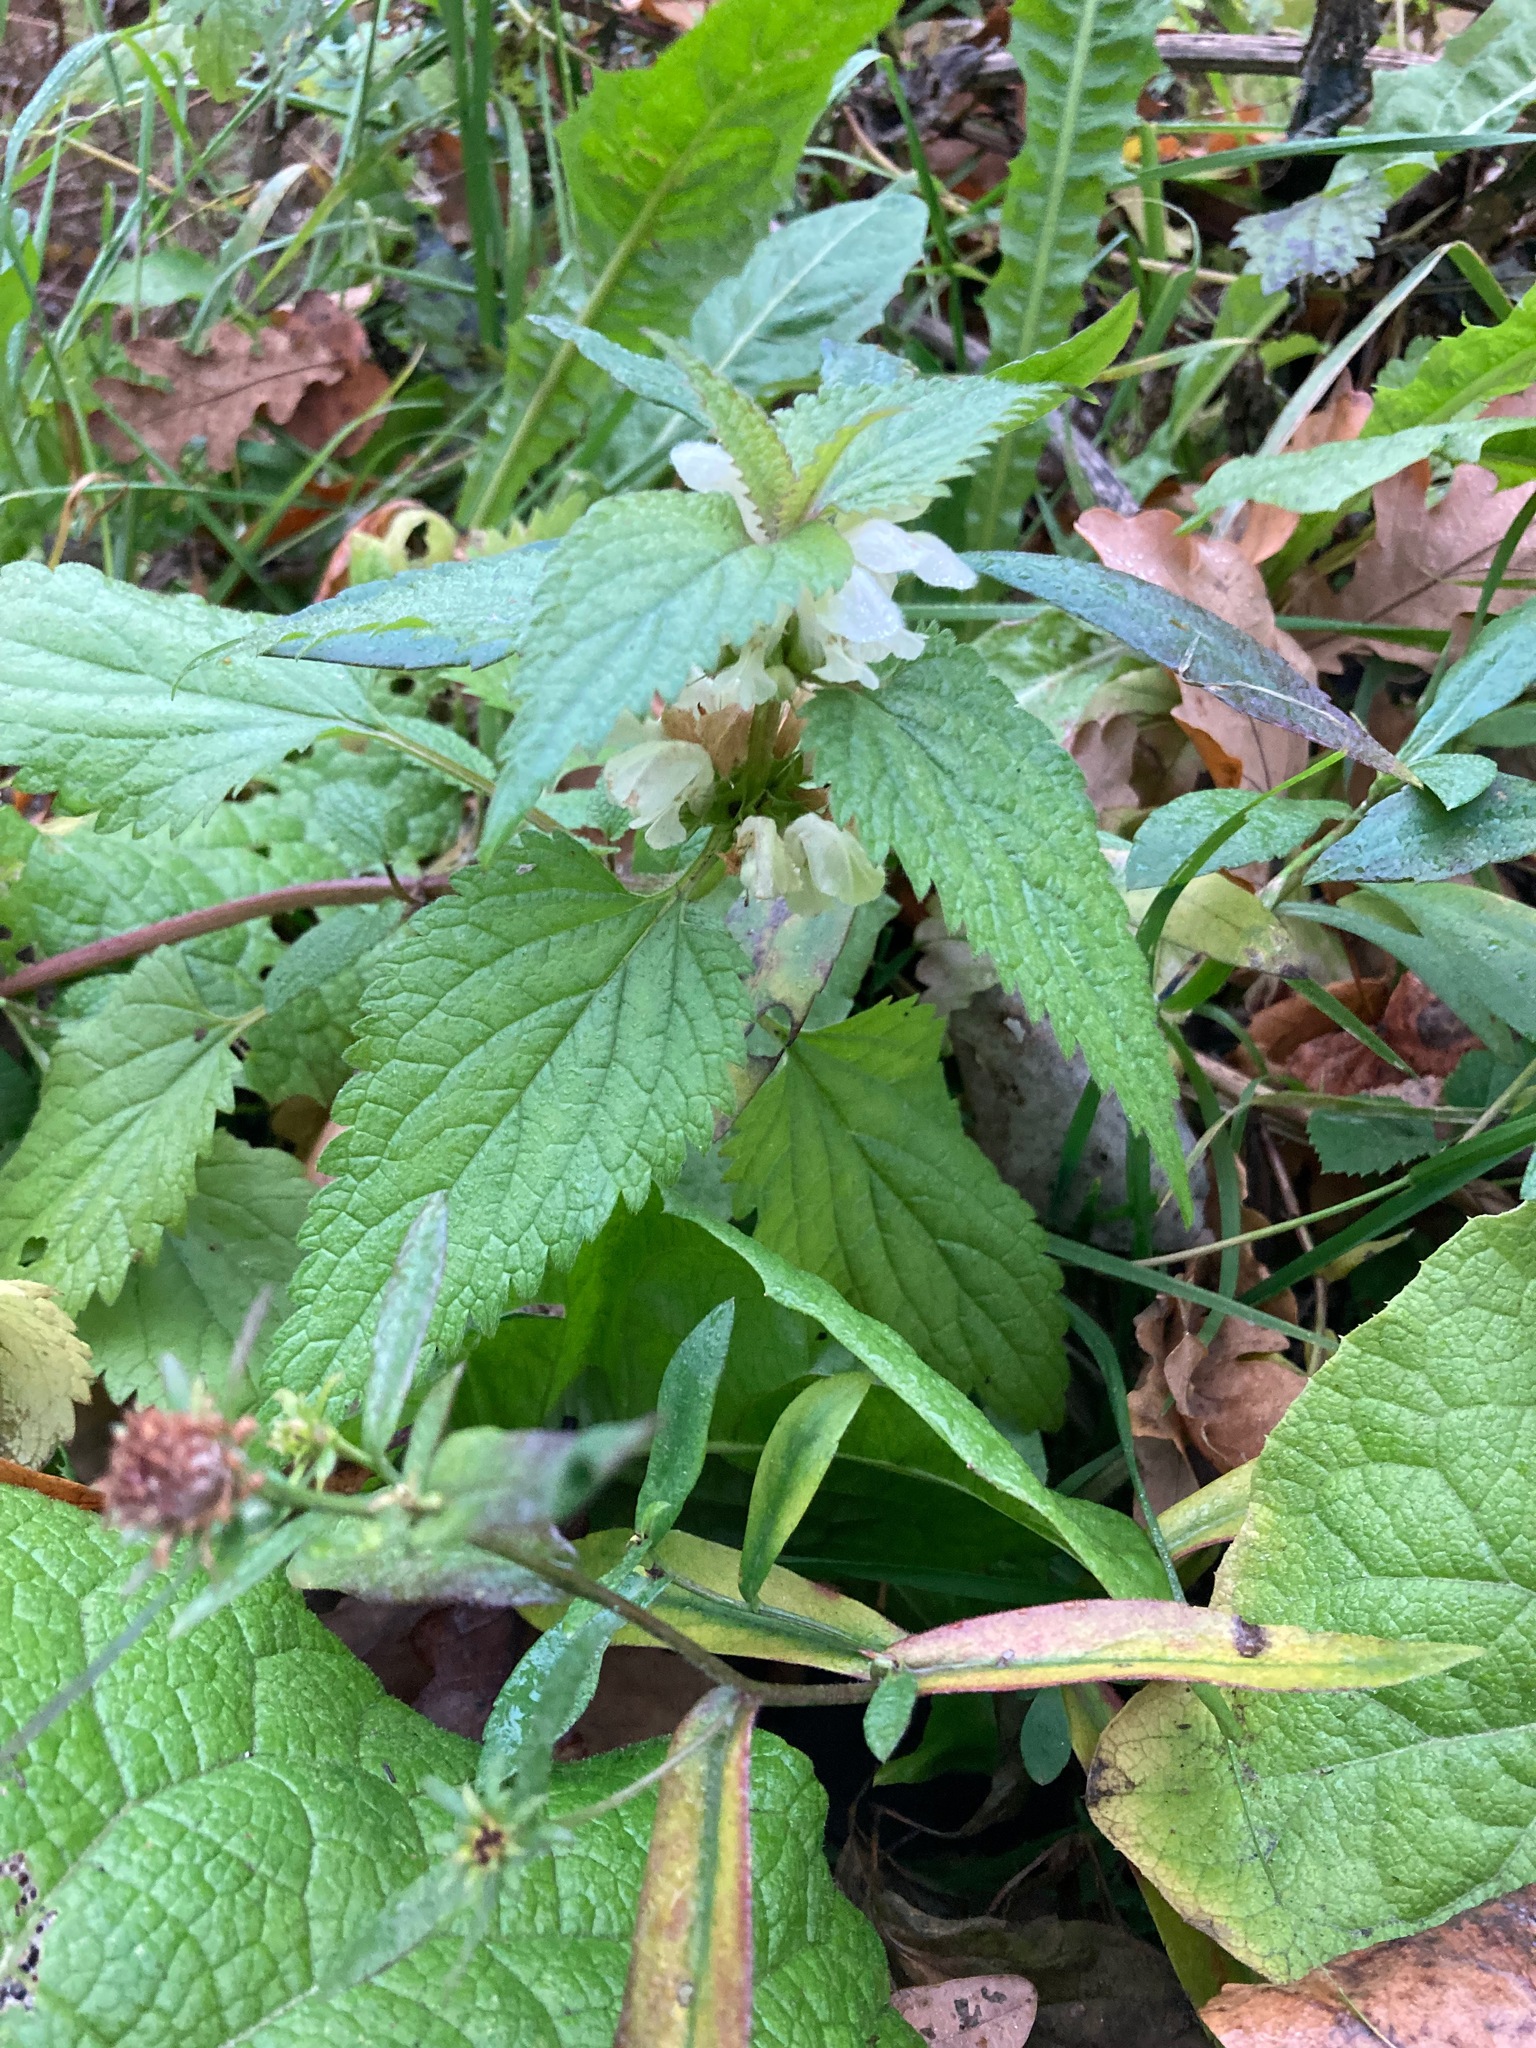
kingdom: Plantae
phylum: Tracheophyta
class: Magnoliopsida
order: Lamiales
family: Lamiaceae
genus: Lamium
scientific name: Lamium album
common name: White dead-nettle
